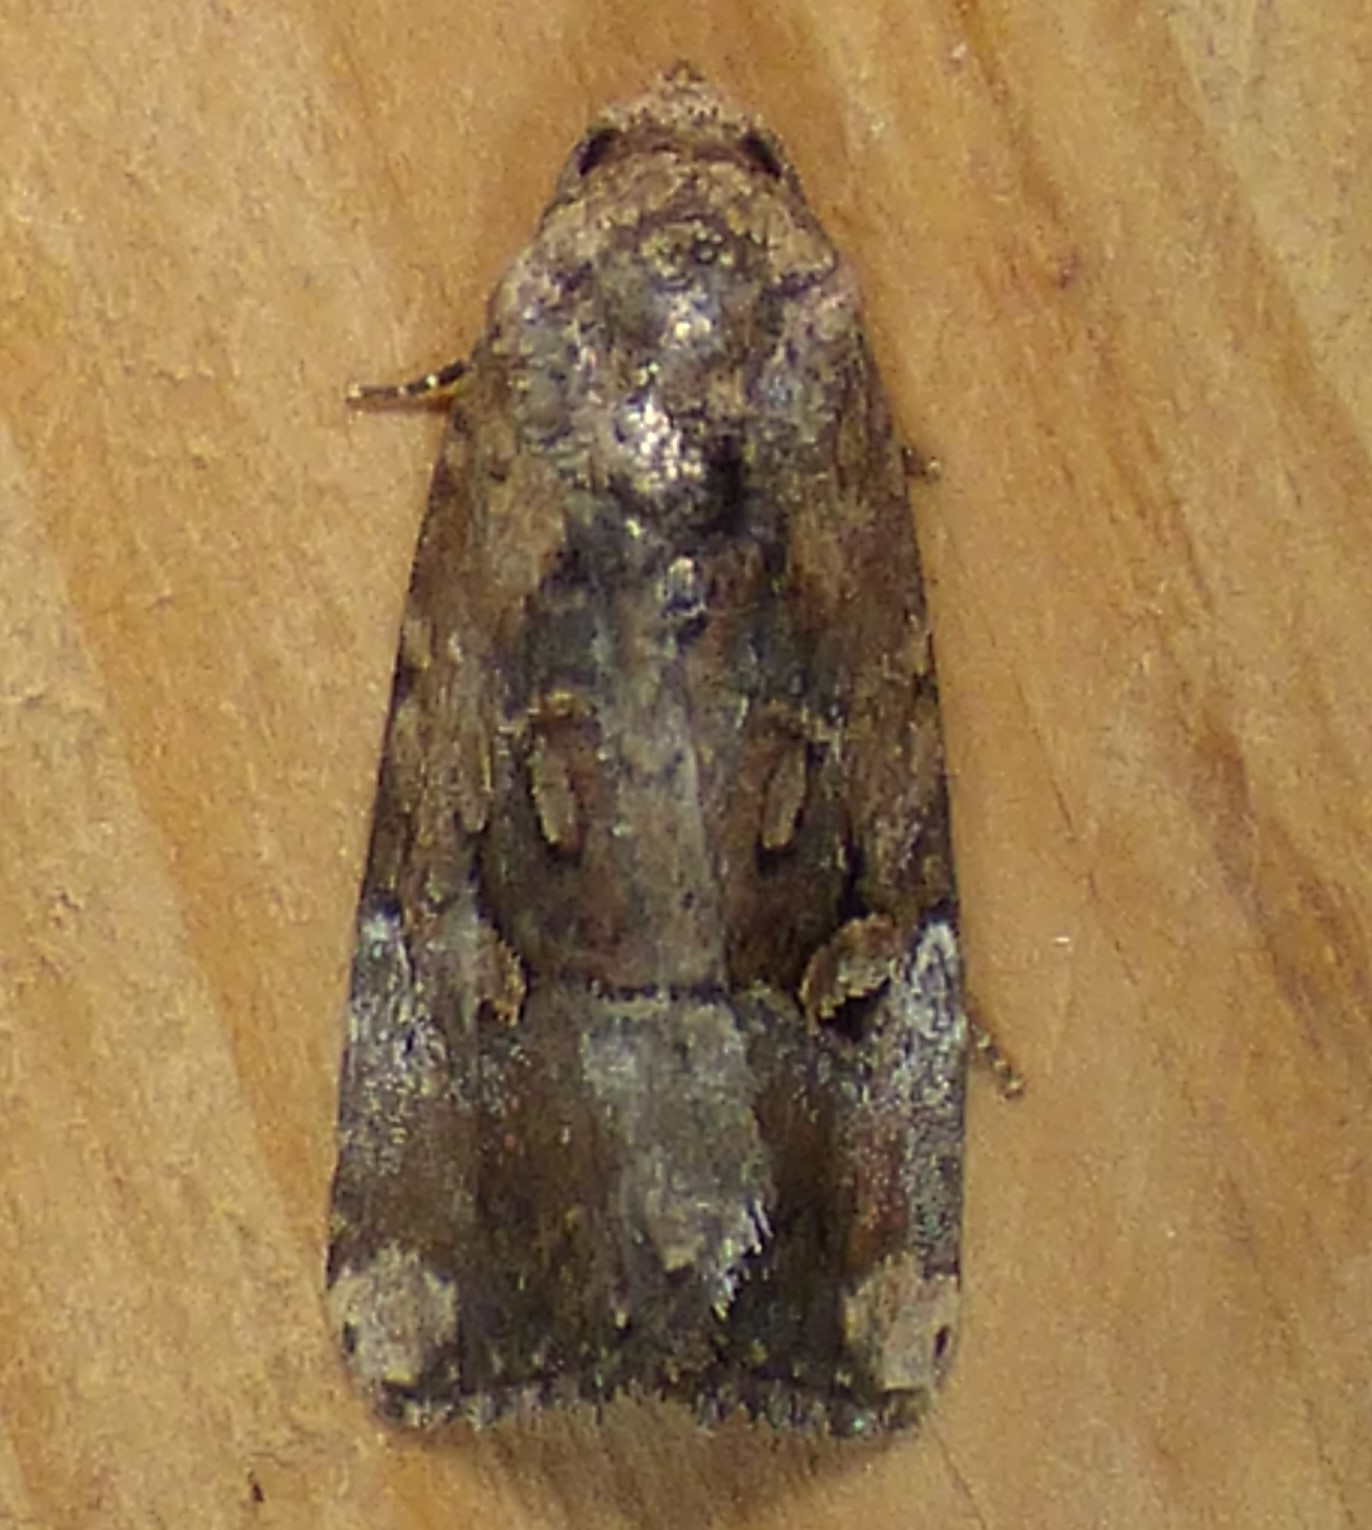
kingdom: Animalia
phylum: Arthropoda
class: Insecta
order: Lepidoptera
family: Noctuidae
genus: Elaphria
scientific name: Elaphria chalcedonia
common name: Chalcedony midget
